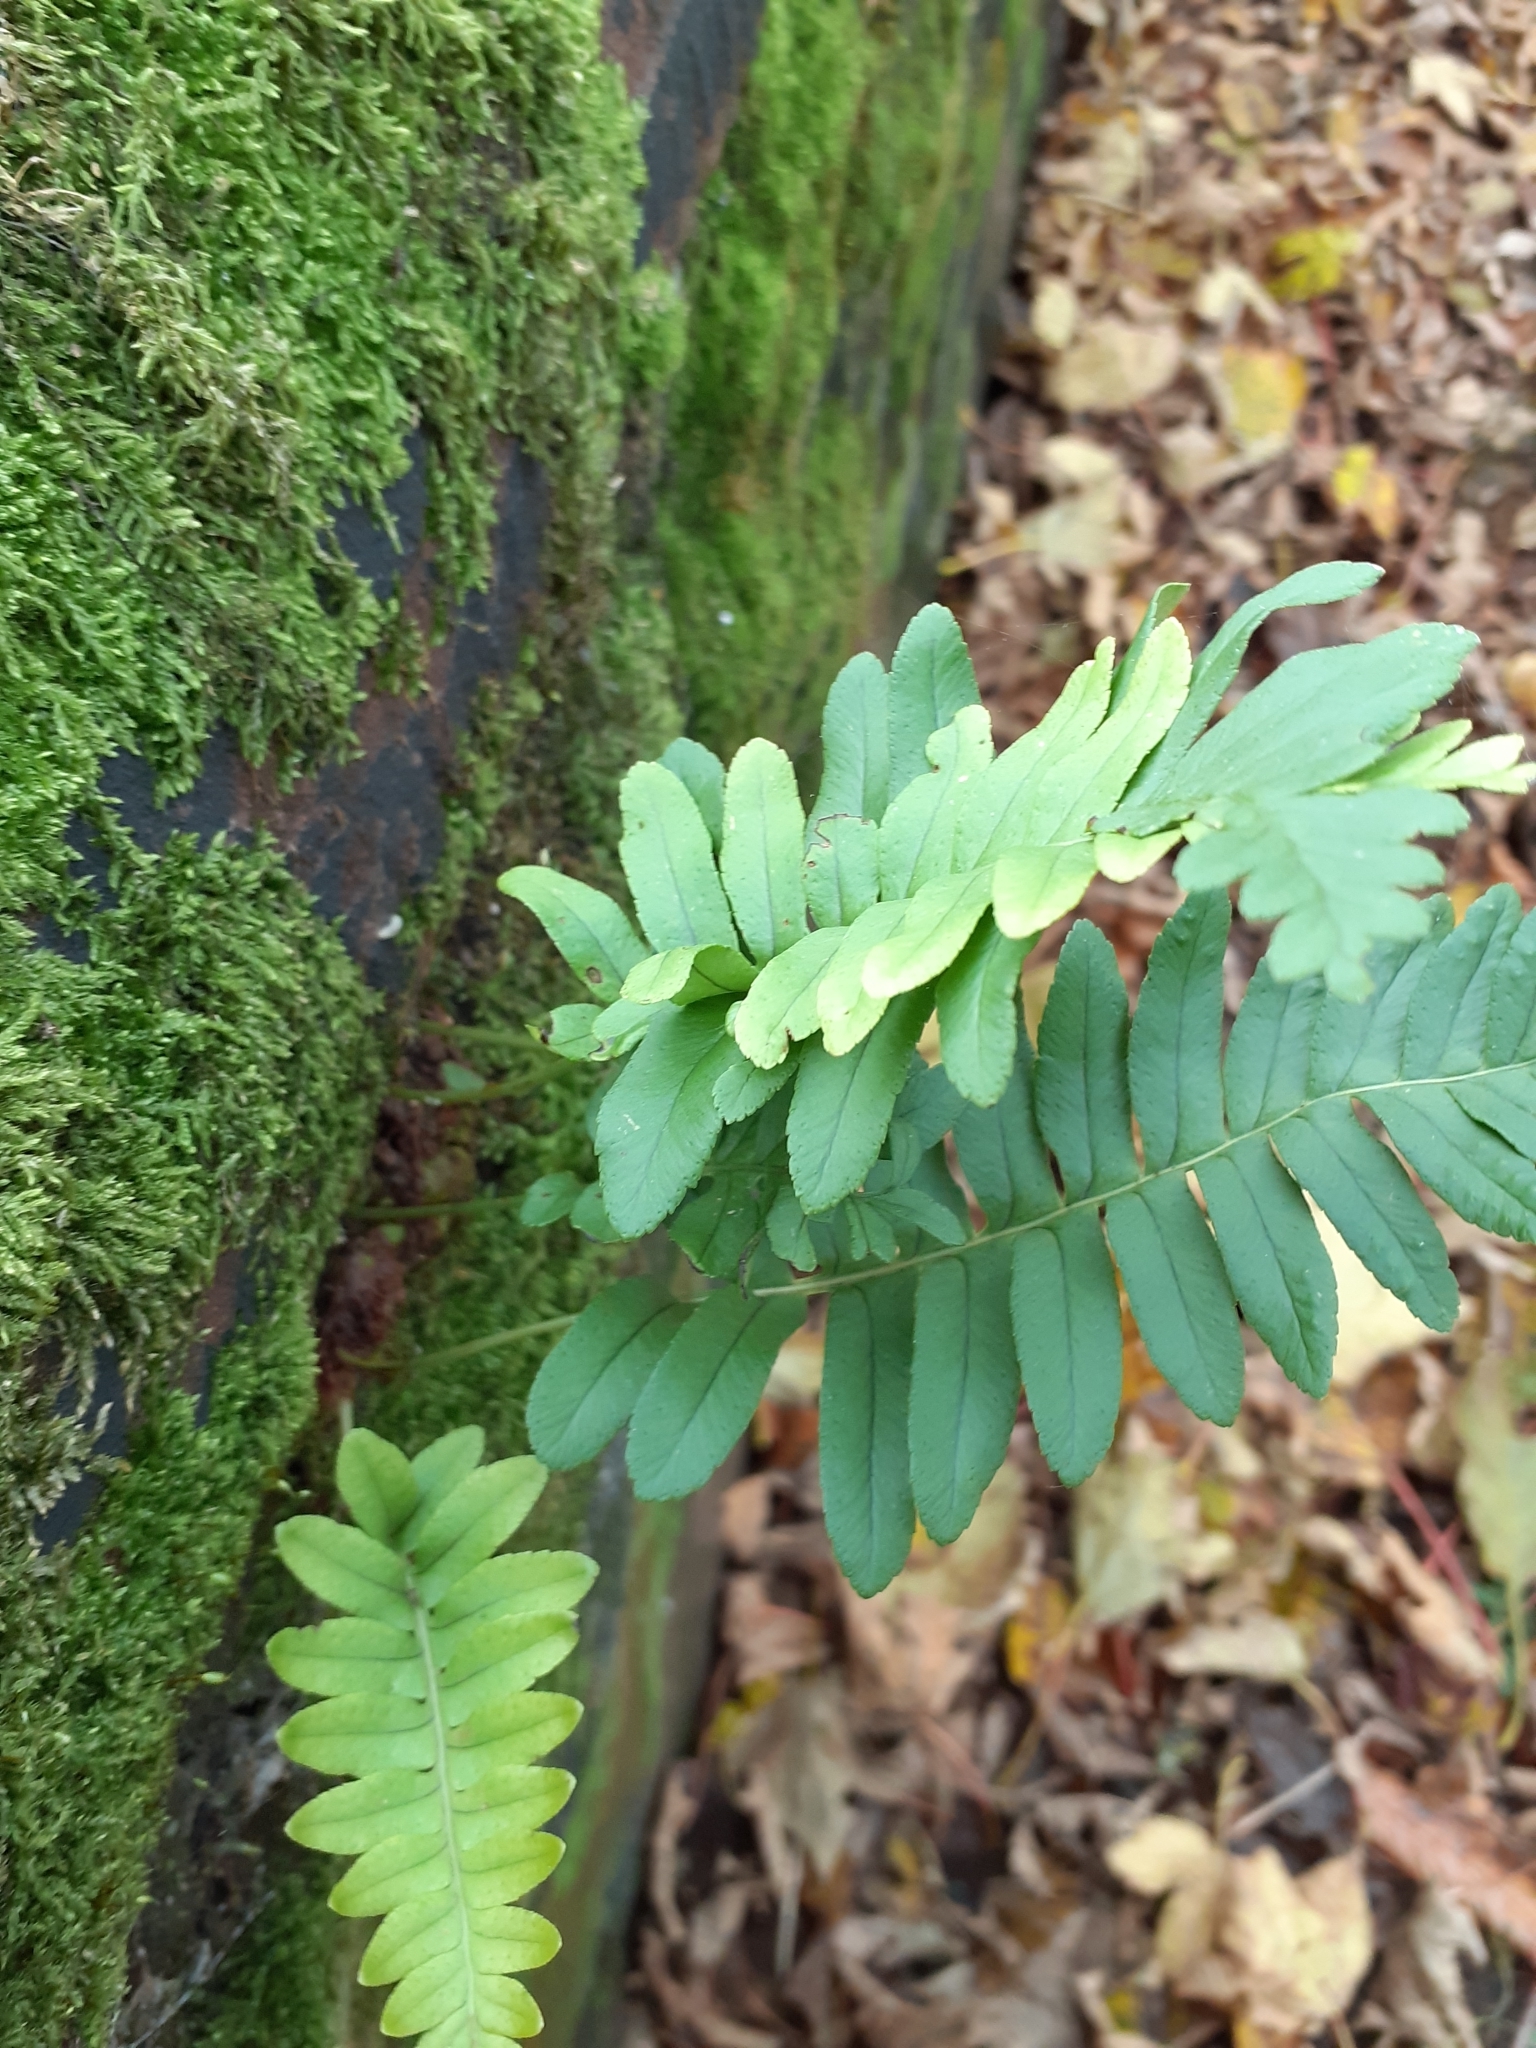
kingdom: Plantae
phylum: Tracheophyta
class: Polypodiopsida
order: Polypodiales
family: Polypodiaceae
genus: Polypodium
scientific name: Polypodium vulgare
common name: Common polypody
